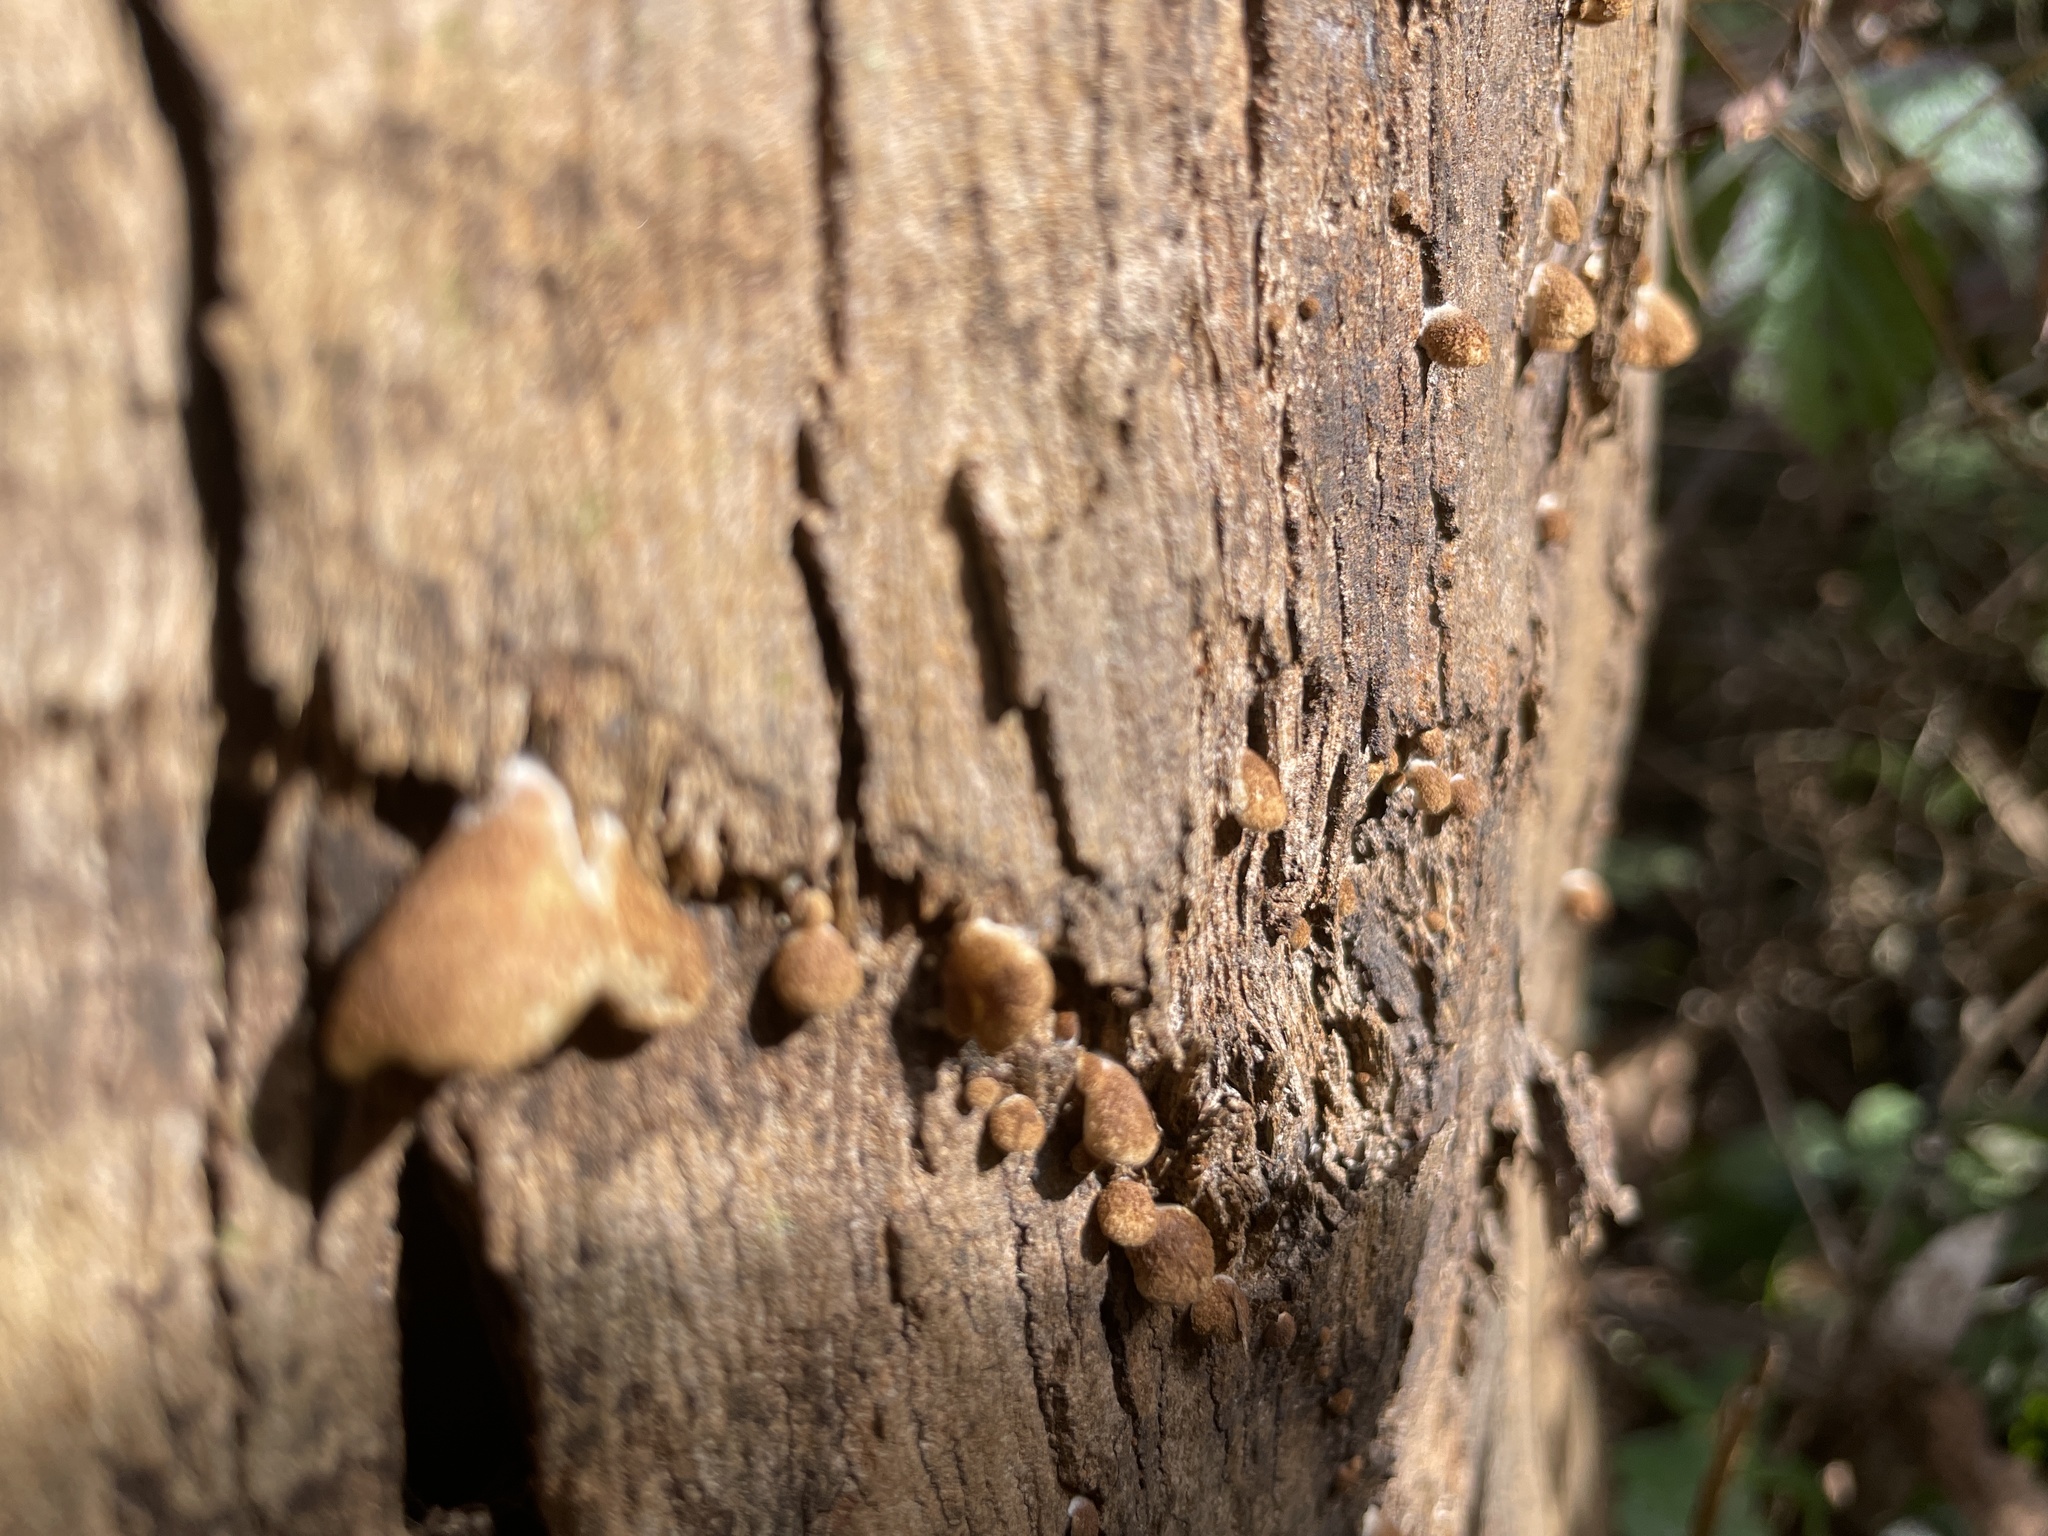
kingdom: Fungi
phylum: Basidiomycota
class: Agaricomycetes
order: Agaricales
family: Crepidotaceae
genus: Crepidotus
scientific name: Crepidotus mollis
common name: Peeling oysterling
